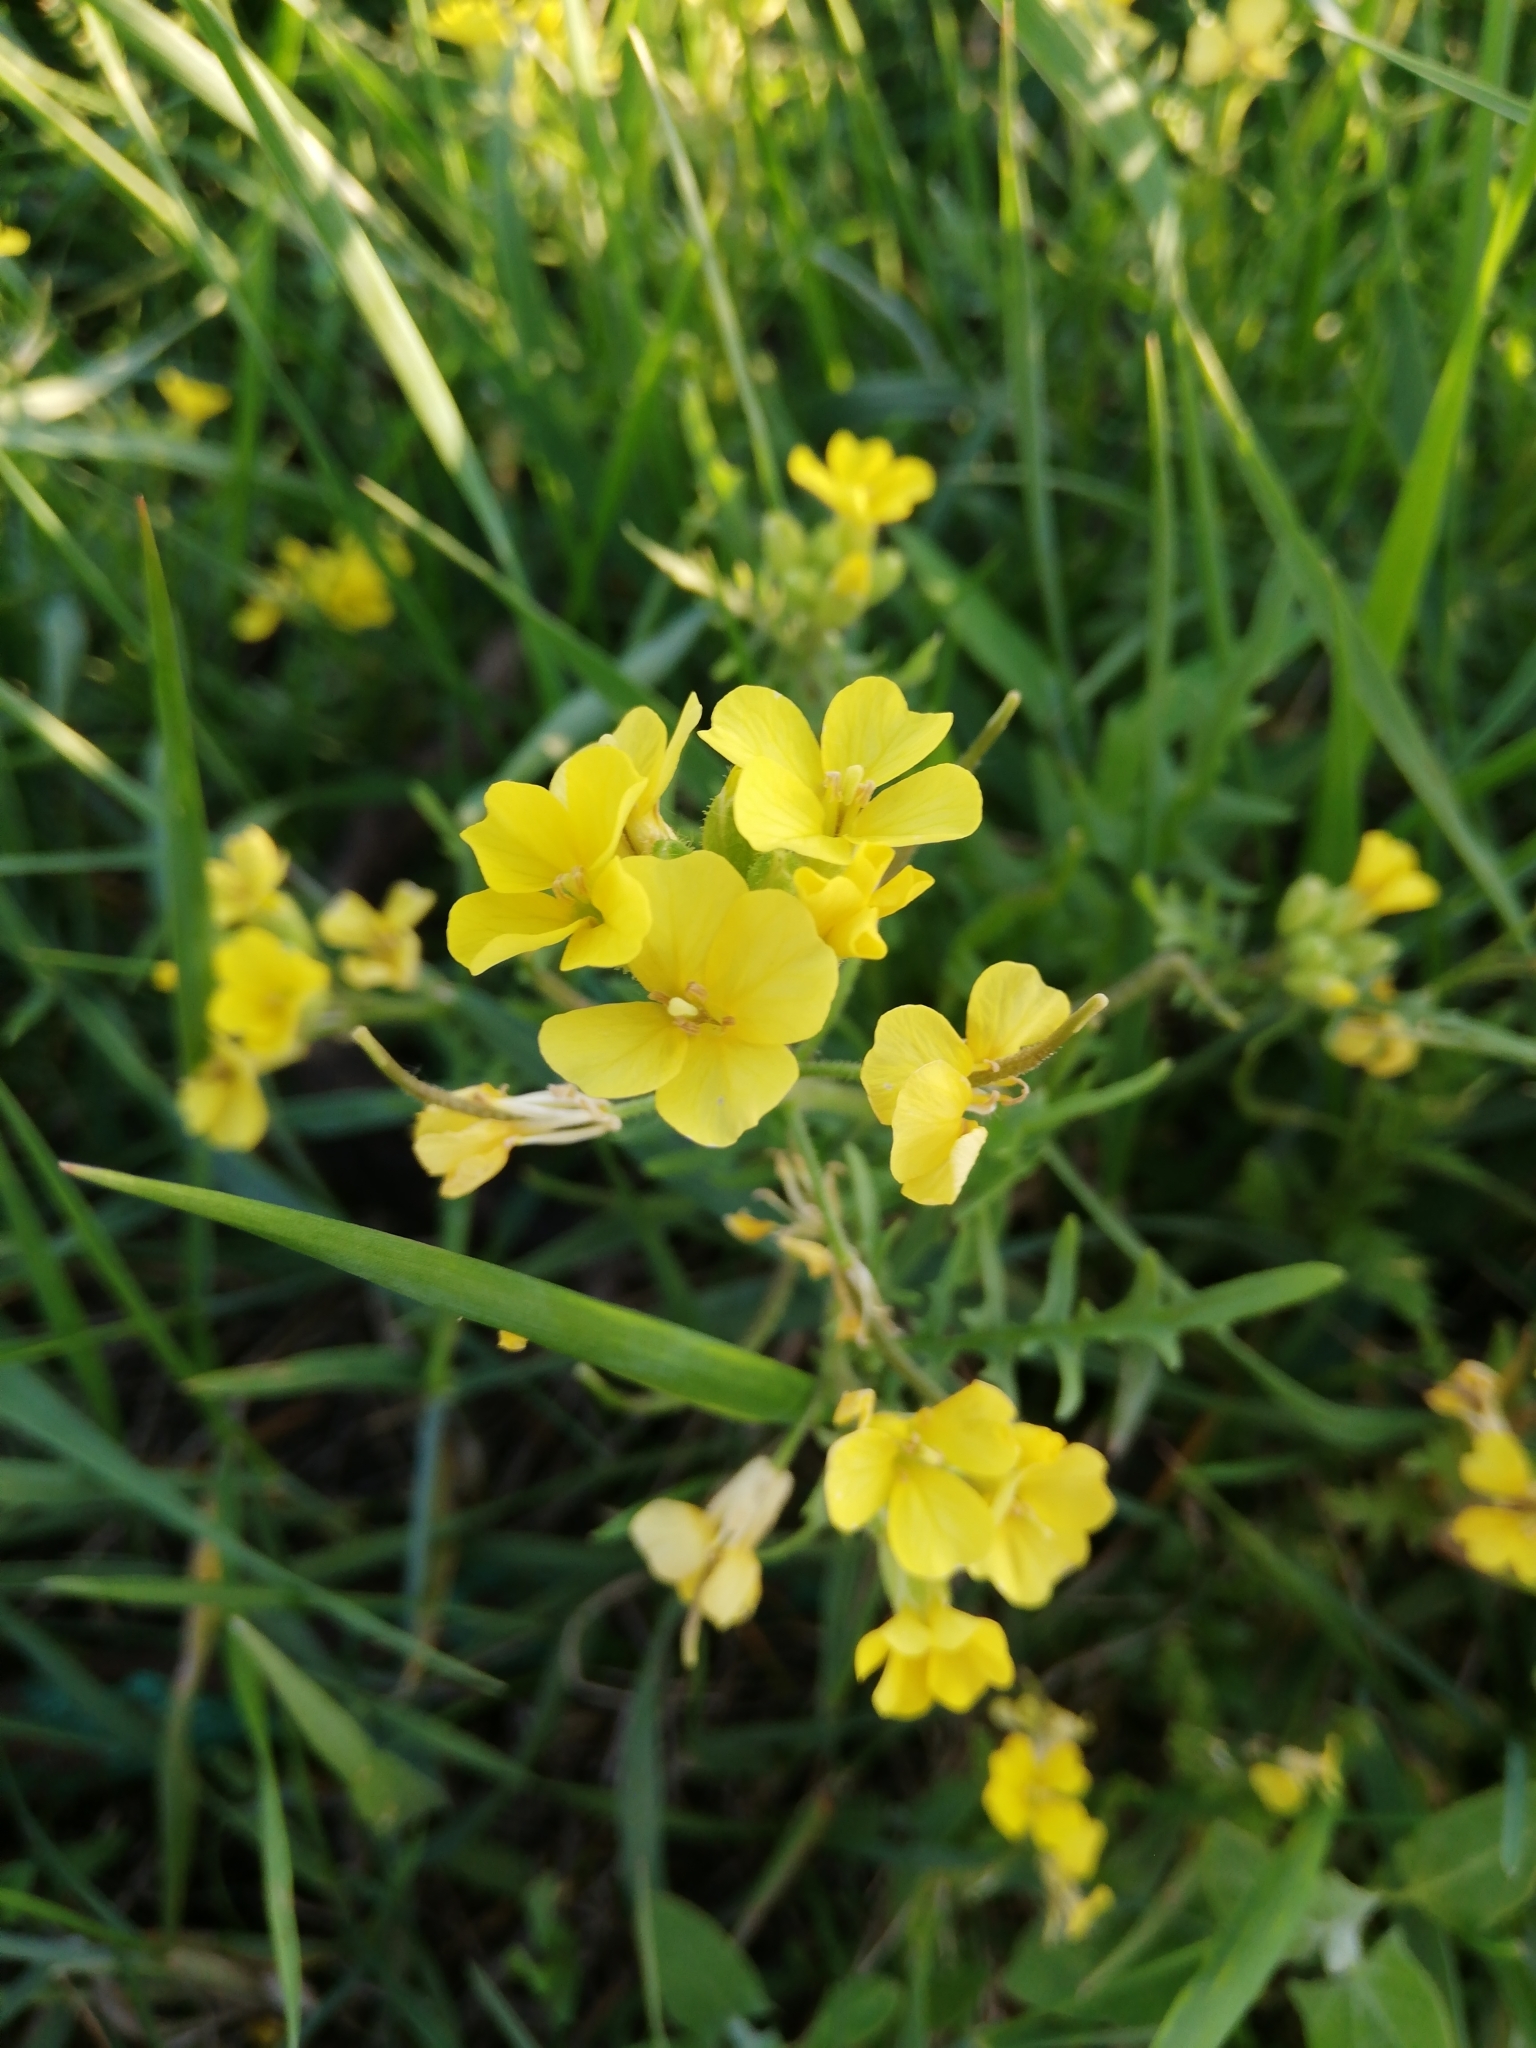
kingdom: Plantae
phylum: Tracheophyta
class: Magnoliopsida
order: Brassicales
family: Brassicaceae
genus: Chorispora
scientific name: Chorispora sibirica
